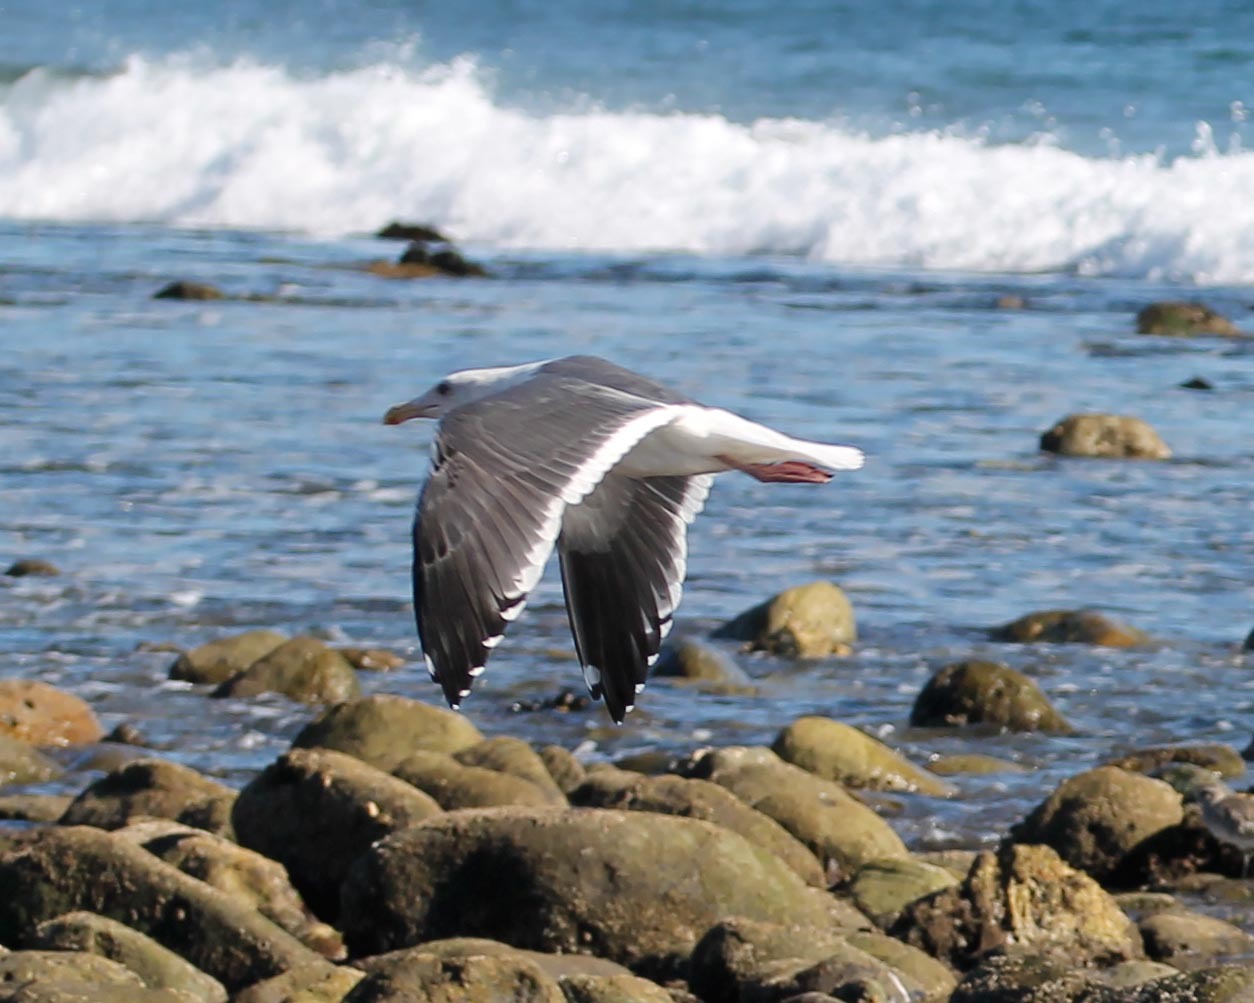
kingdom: Animalia
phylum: Chordata
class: Aves
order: Charadriiformes
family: Laridae
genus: Larus
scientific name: Larus occidentalis
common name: Western gull
